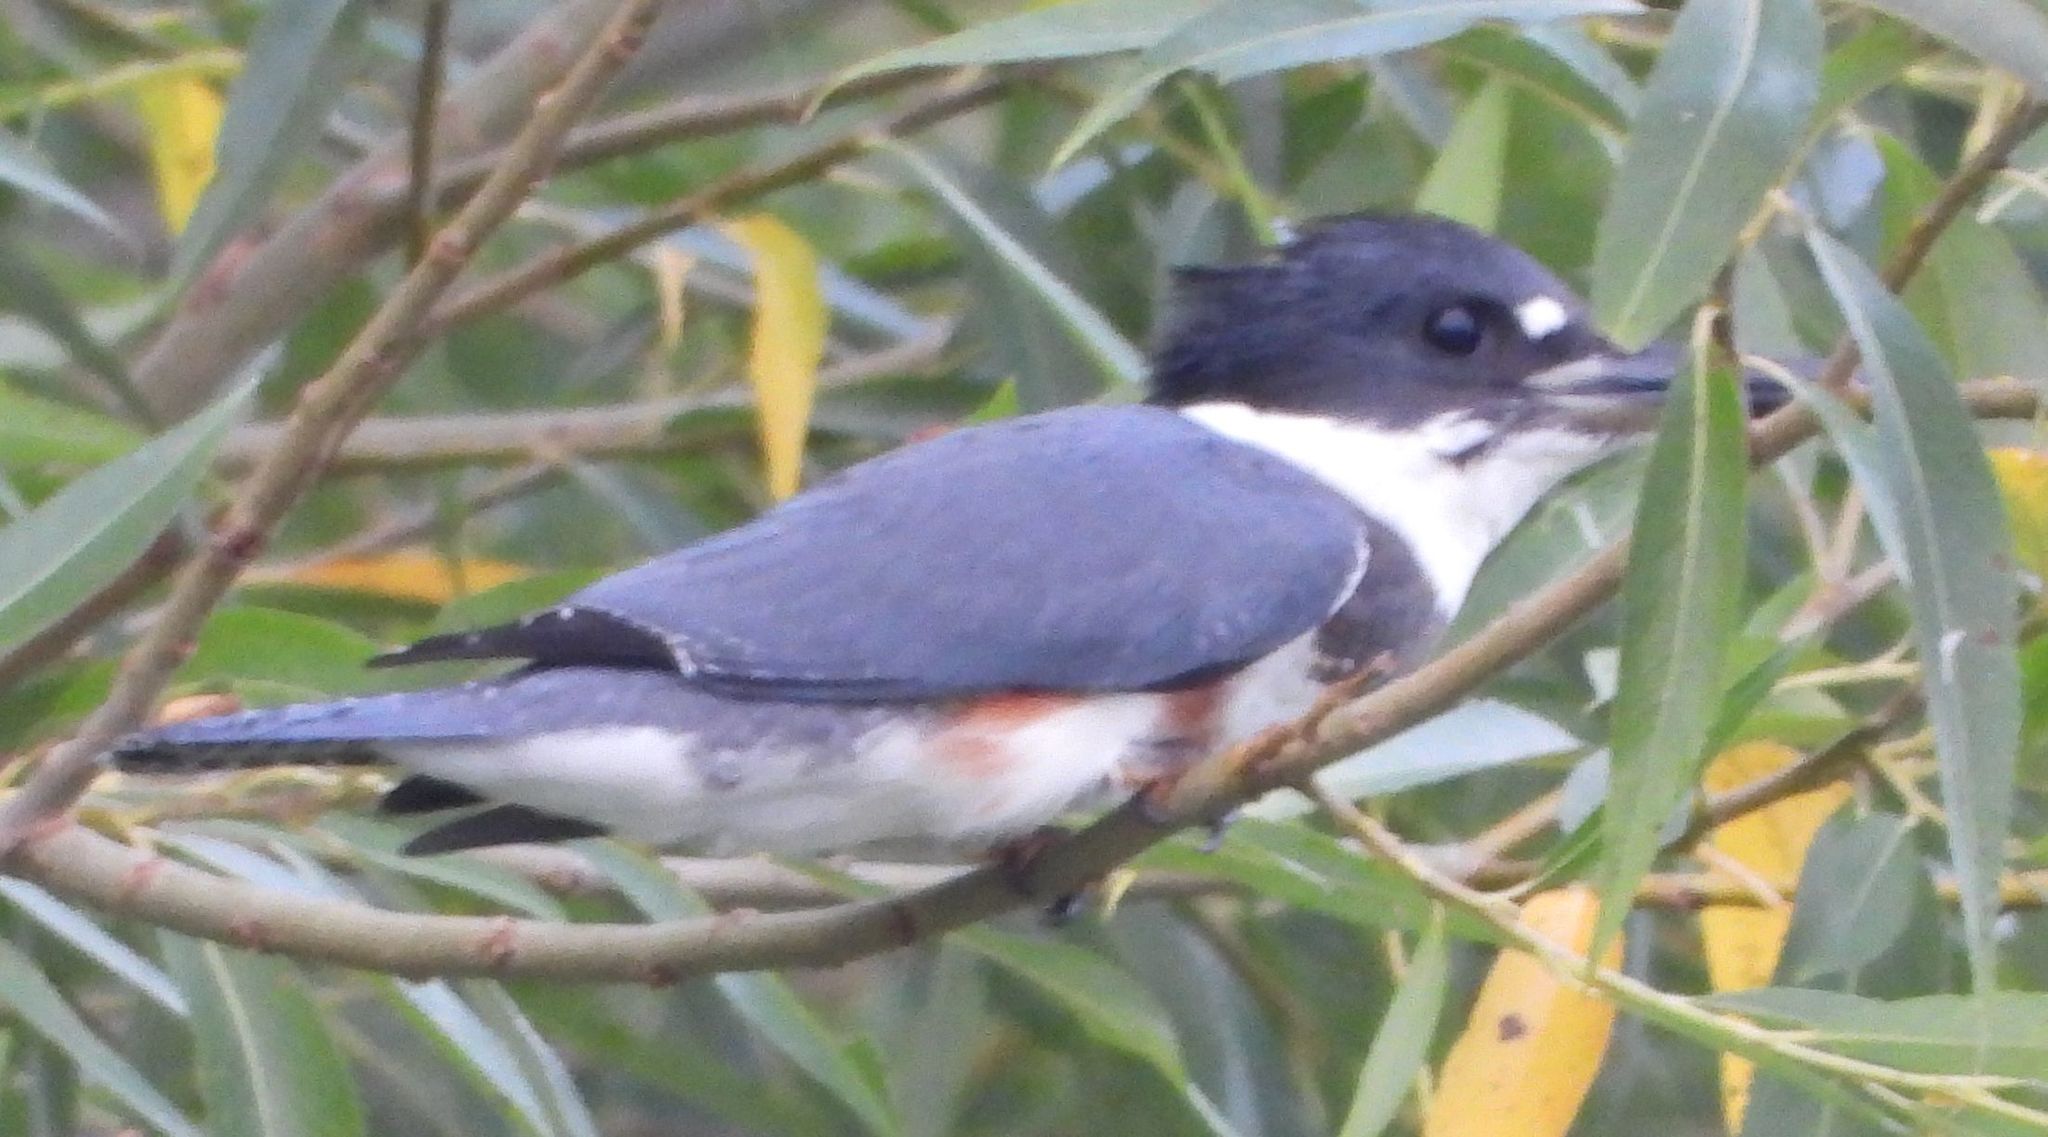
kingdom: Animalia
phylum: Chordata
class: Aves
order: Coraciiformes
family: Alcedinidae
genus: Megaceryle
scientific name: Megaceryle alcyon
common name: Belted kingfisher
